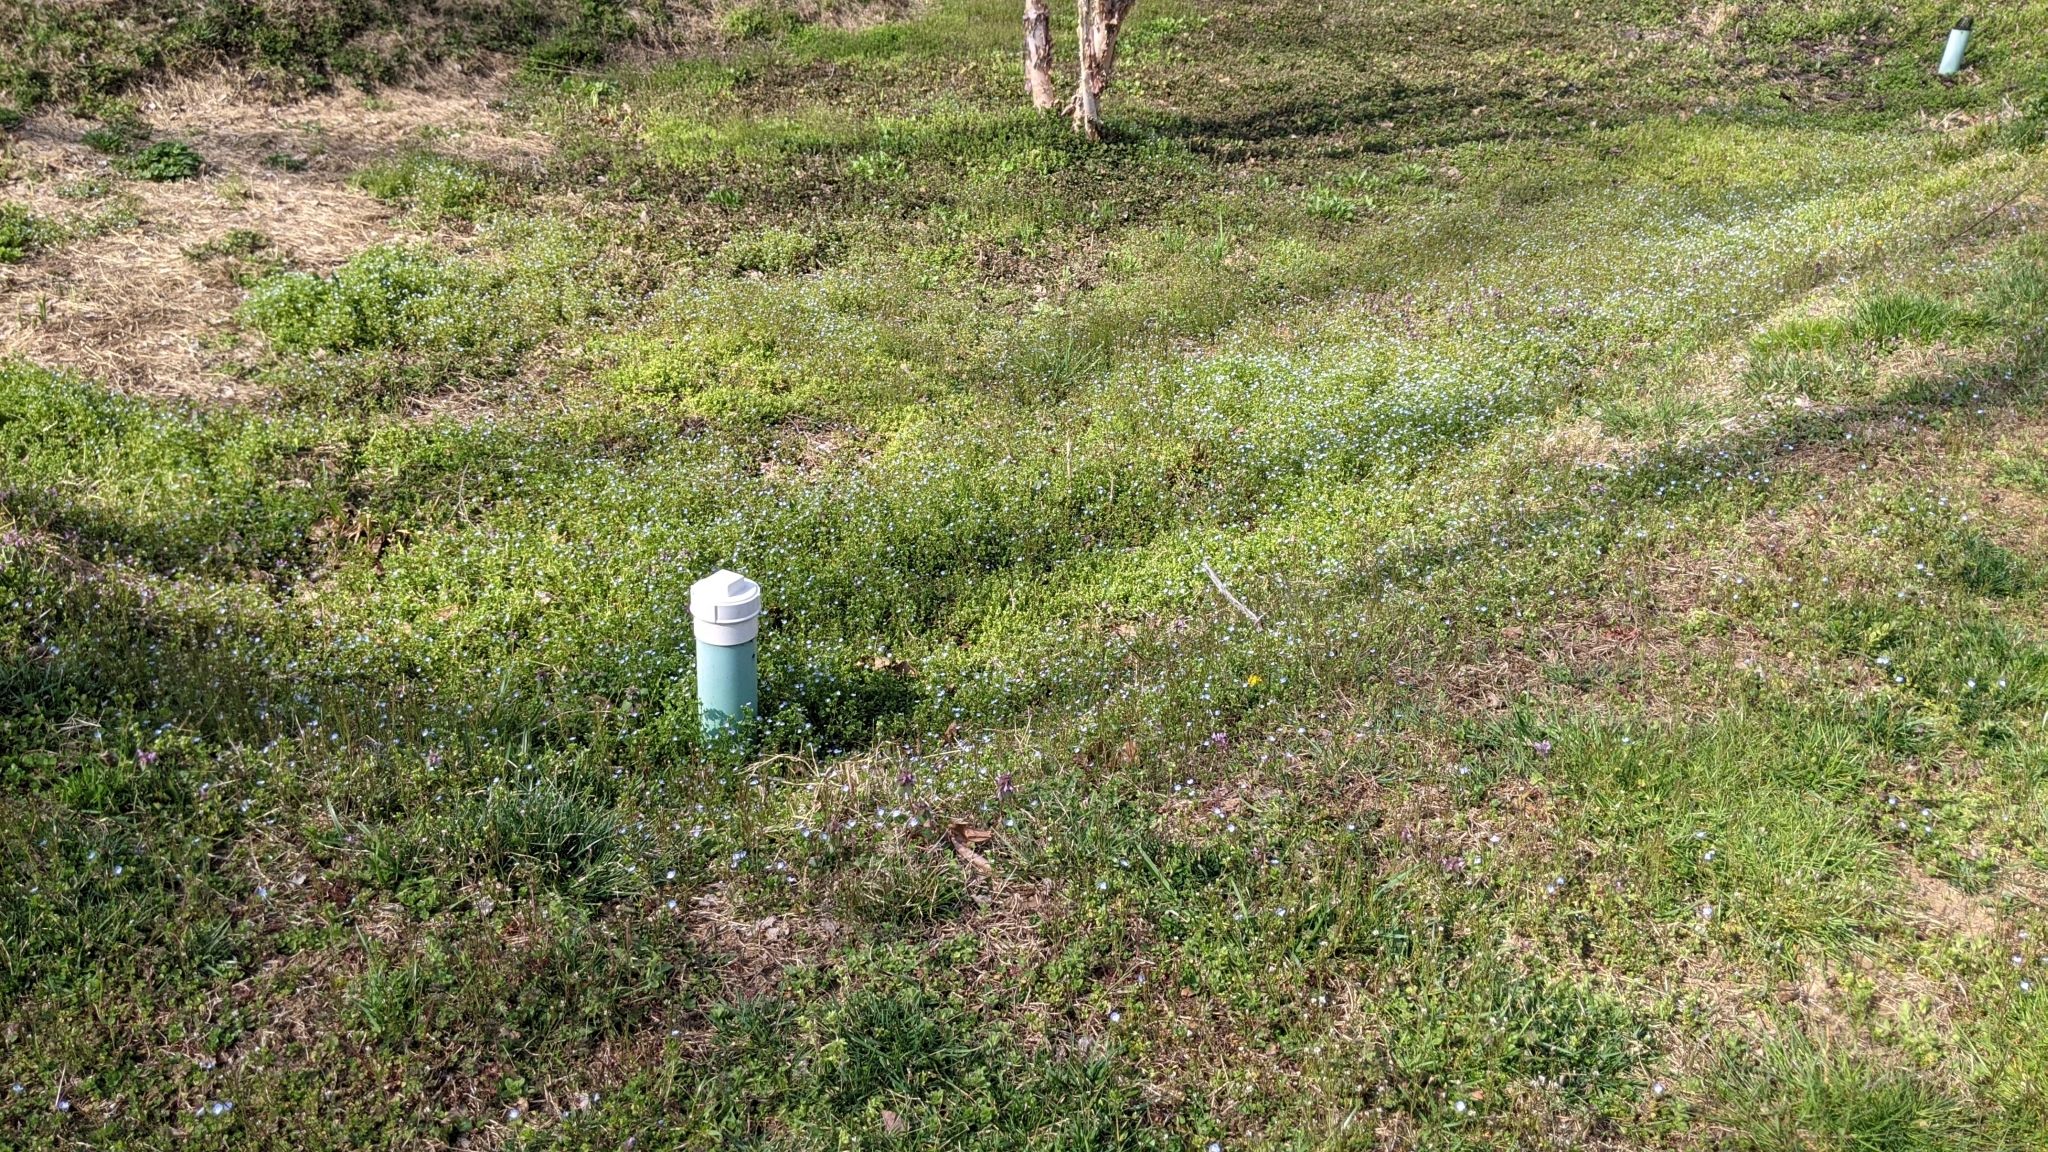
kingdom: Plantae
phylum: Tracheophyta
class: Magnoliopsida
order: Lamiales
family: Plantaginaceae
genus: Veronica
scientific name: Veronica persica
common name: Common field-speedwell
